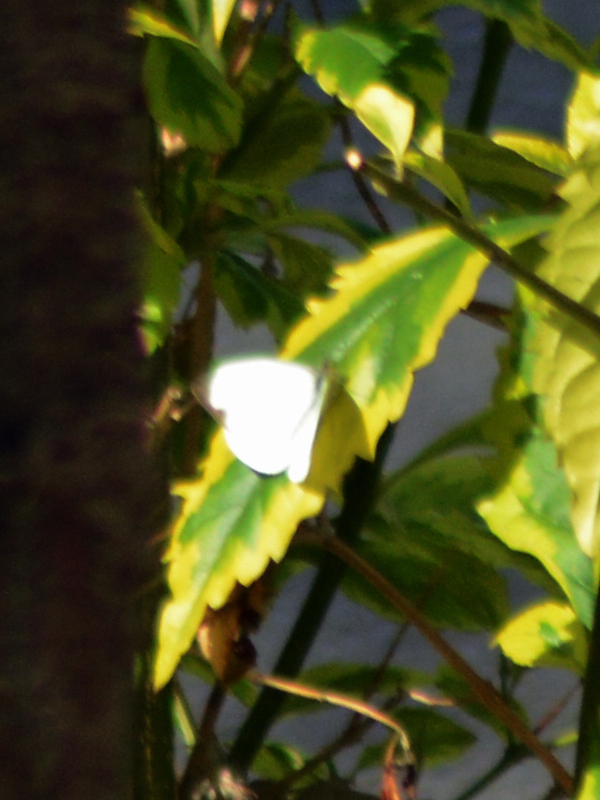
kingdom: Animalia
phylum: Arthropoda
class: Insecta
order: Lepidoptera
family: Pieridae
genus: Leptophobia
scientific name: Leptophobia aripa
